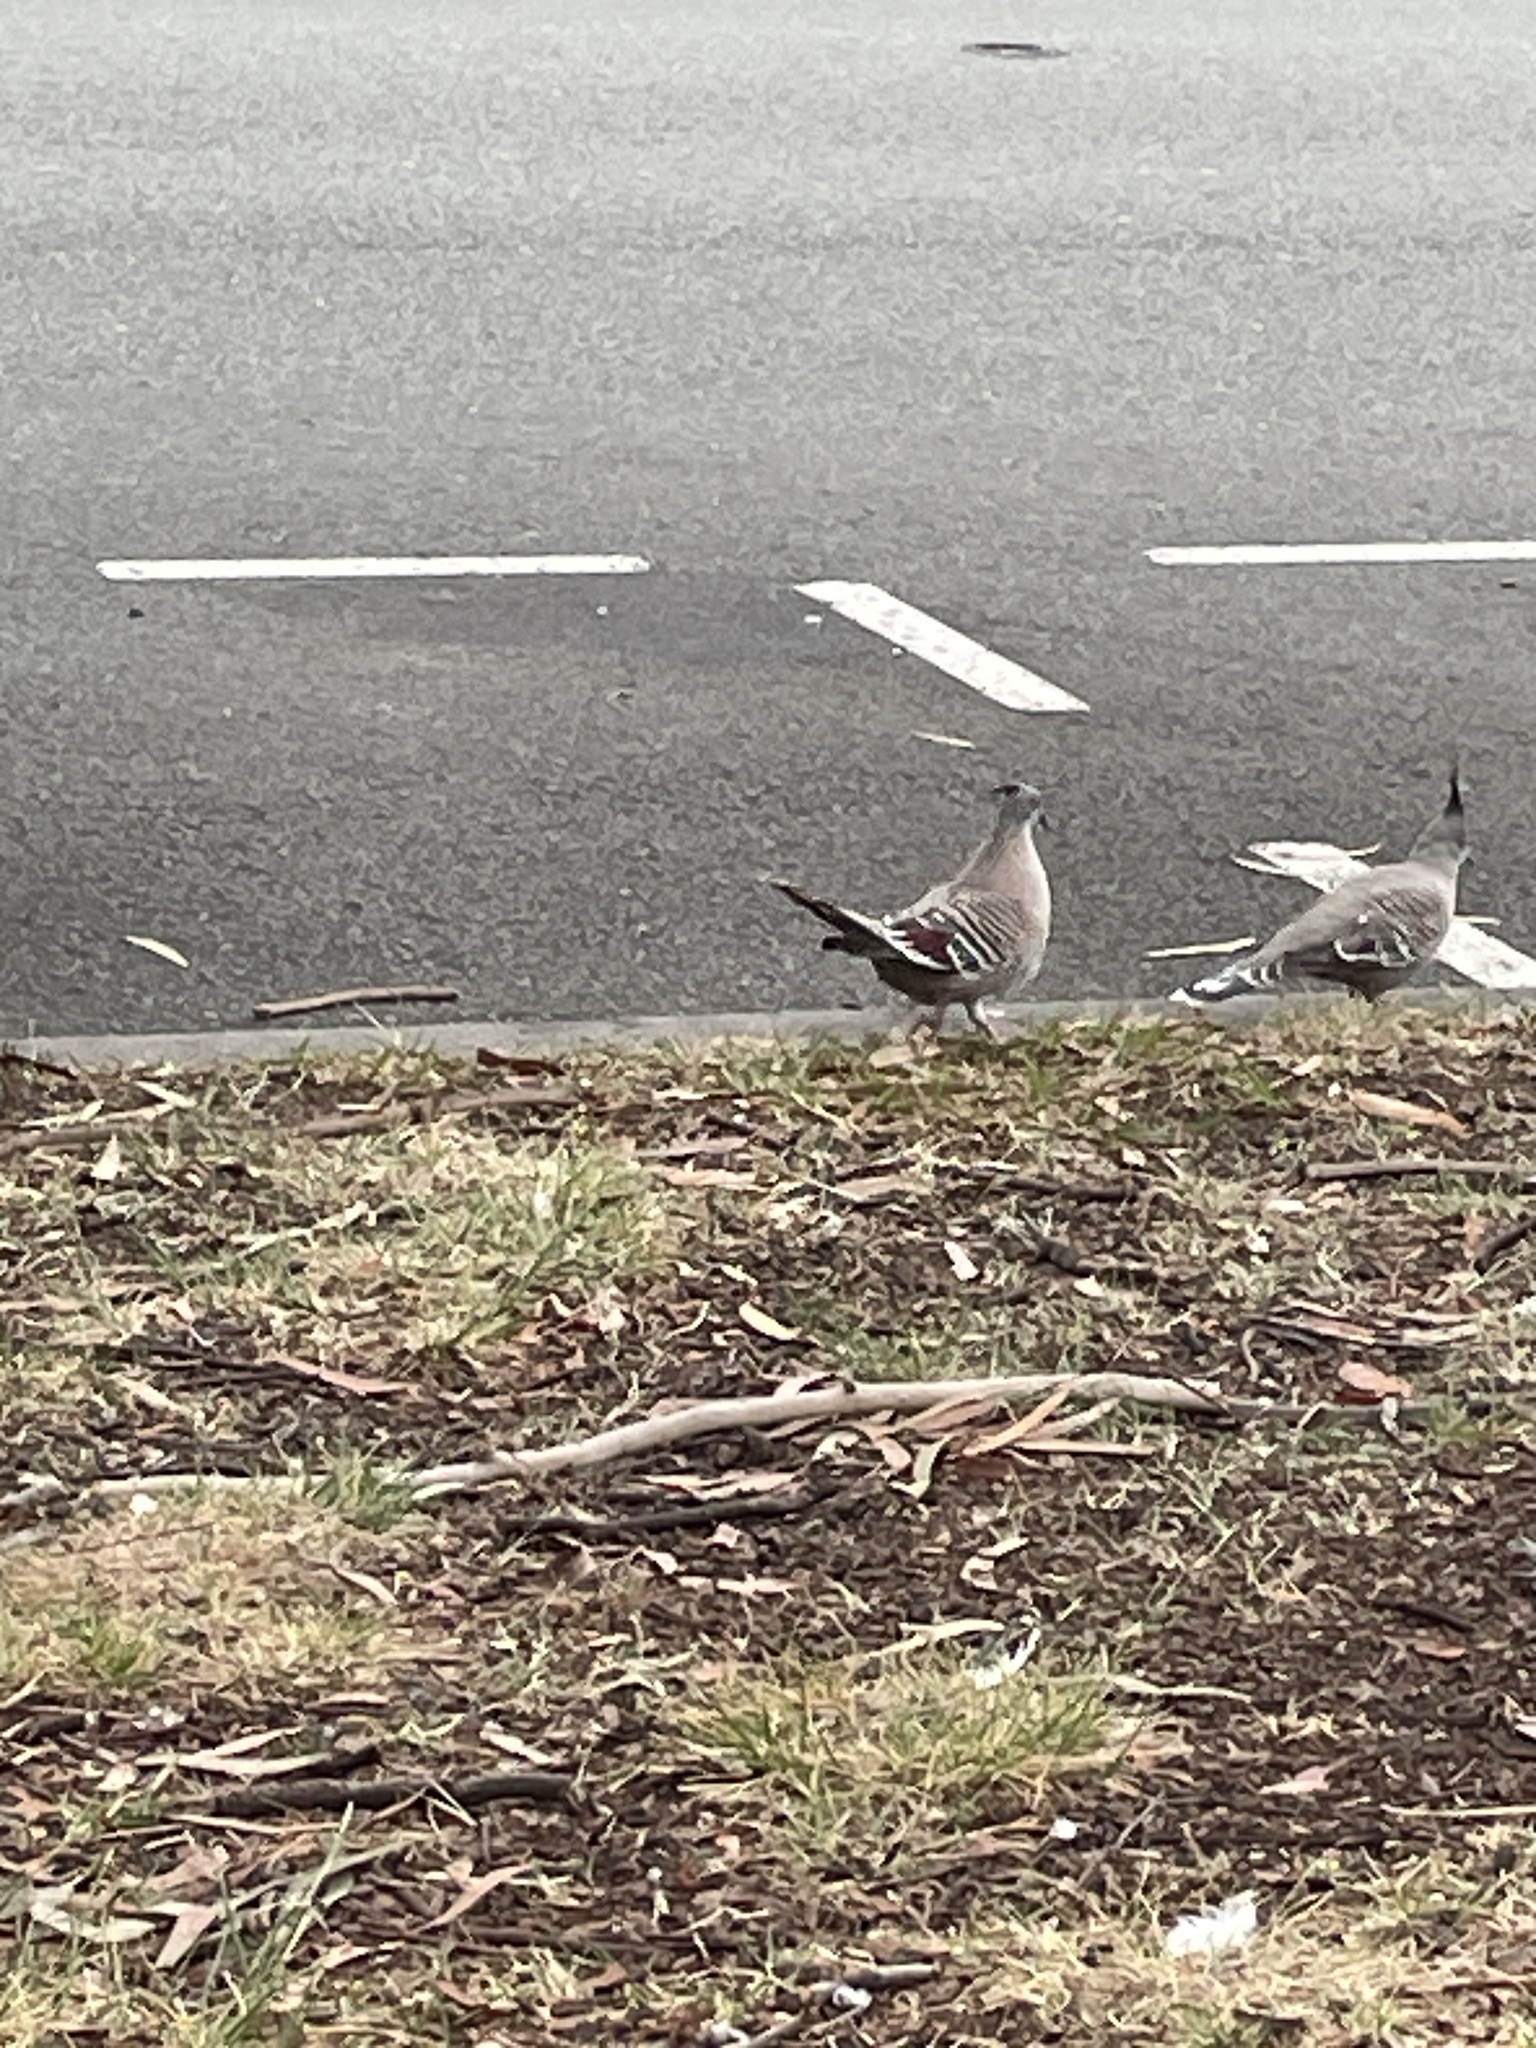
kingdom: Animalia
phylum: Chordata
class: Aves
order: Columbiformes
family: Columbidae
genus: Ocyphaps
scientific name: Ocyphaps lophotes
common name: Crested pigeon
